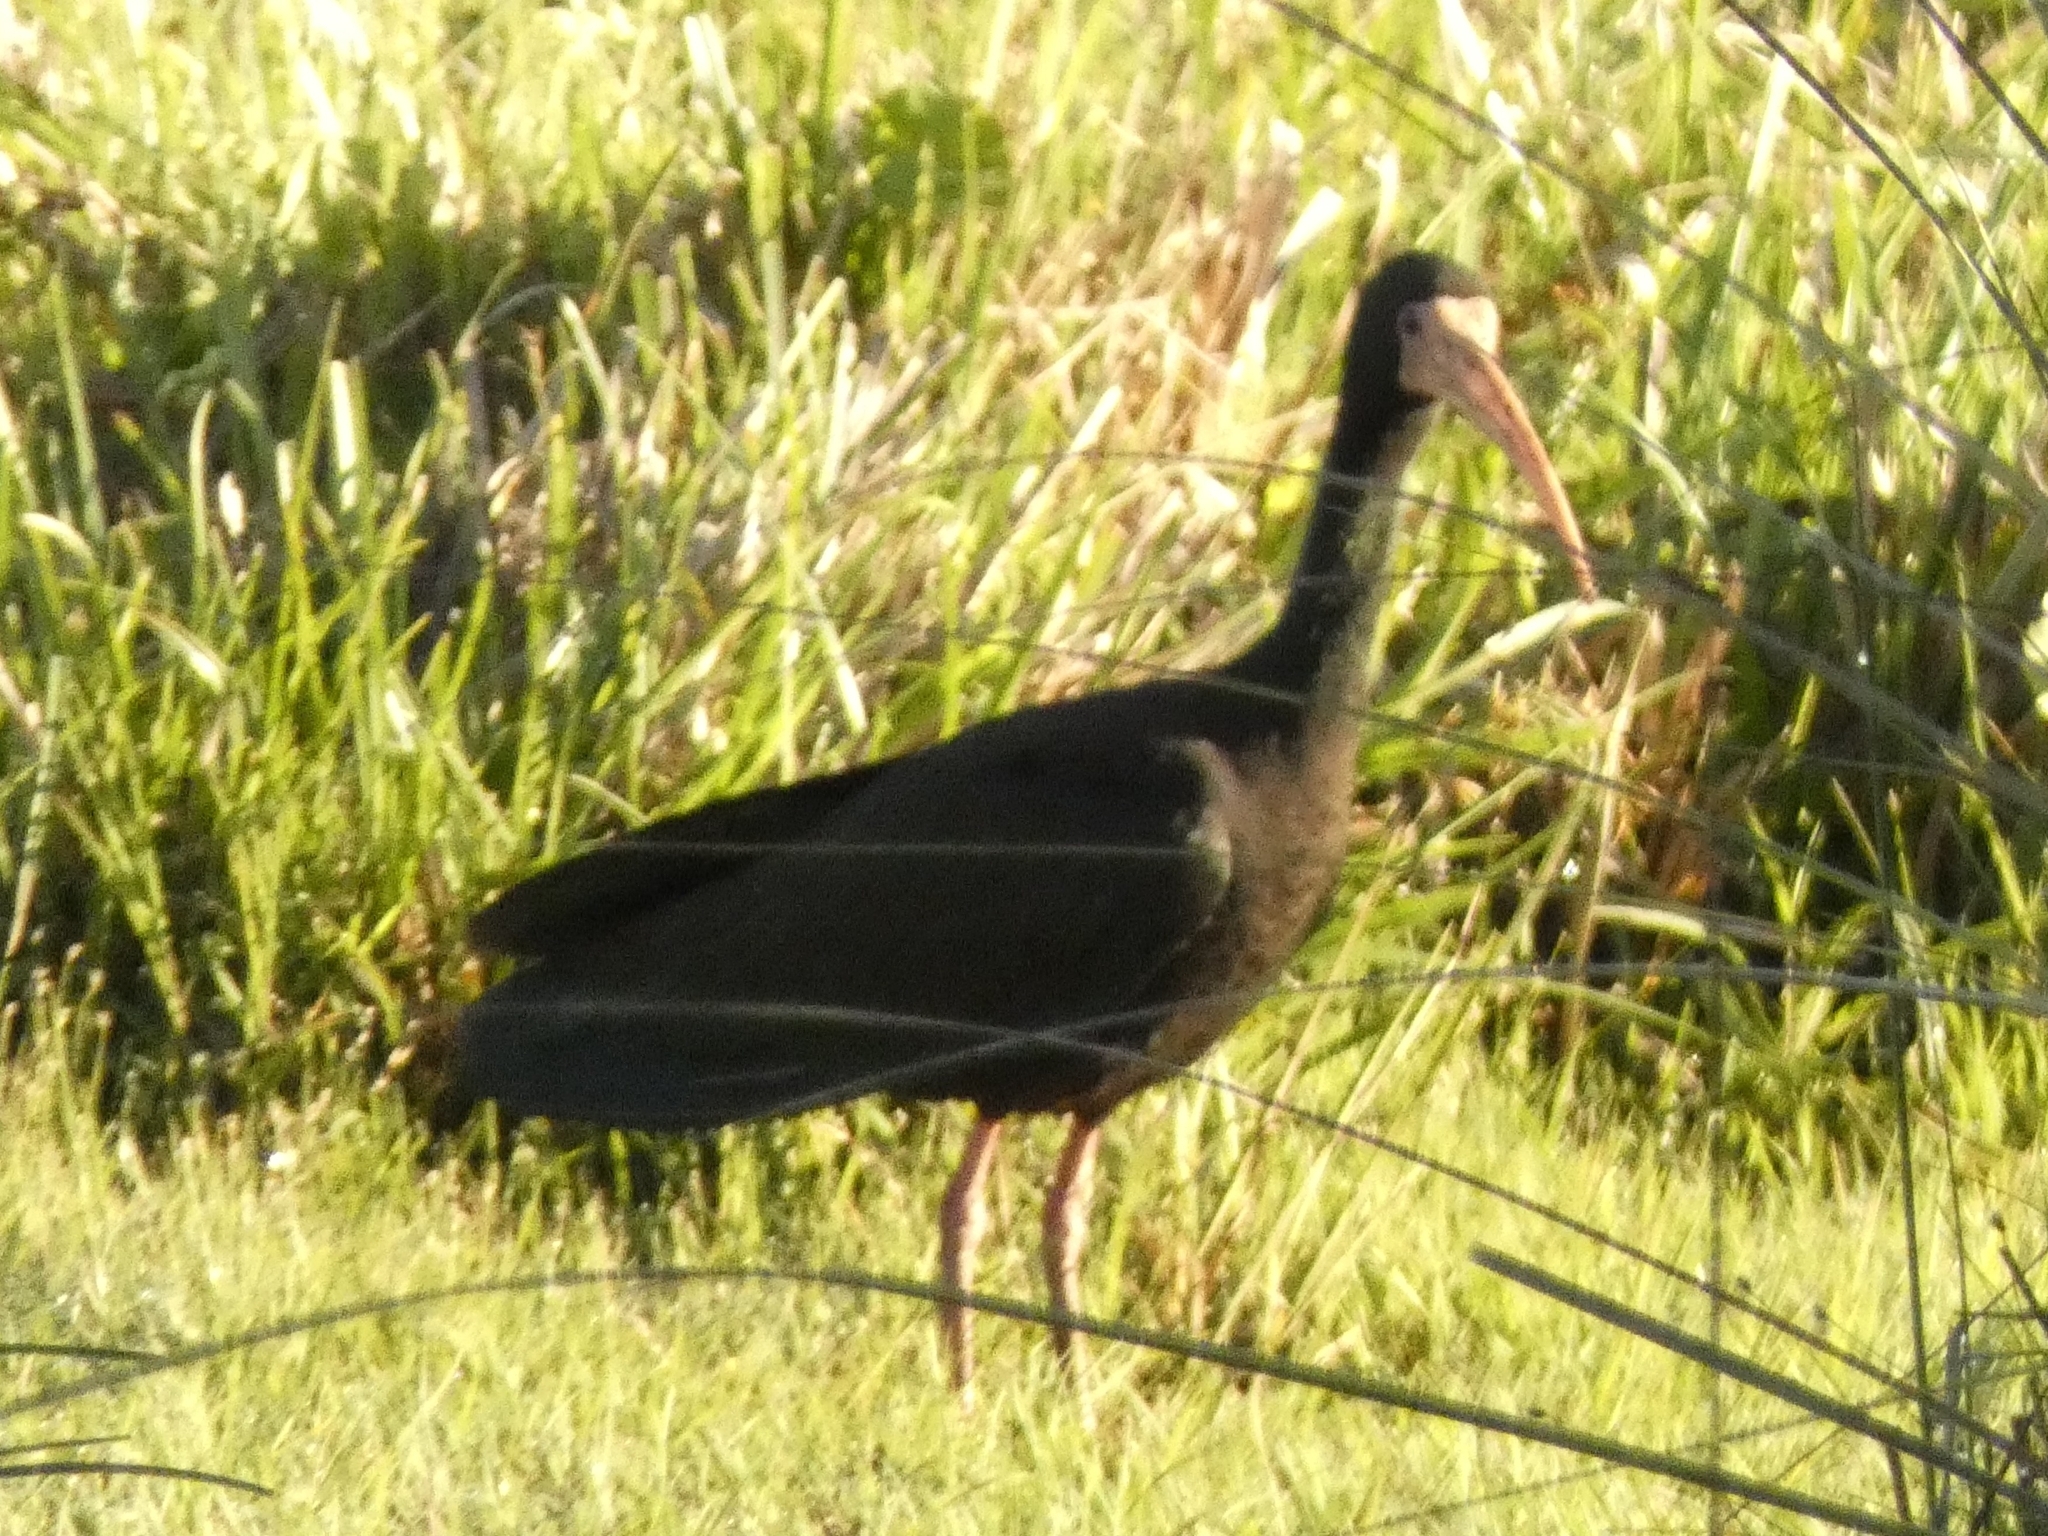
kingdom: Animalia
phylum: Chordata
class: Aves
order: Pelecaniformes
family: Threskiornithidae
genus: Phimosus
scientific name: Phimosus infuscatus
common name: Bare-faced ibis
